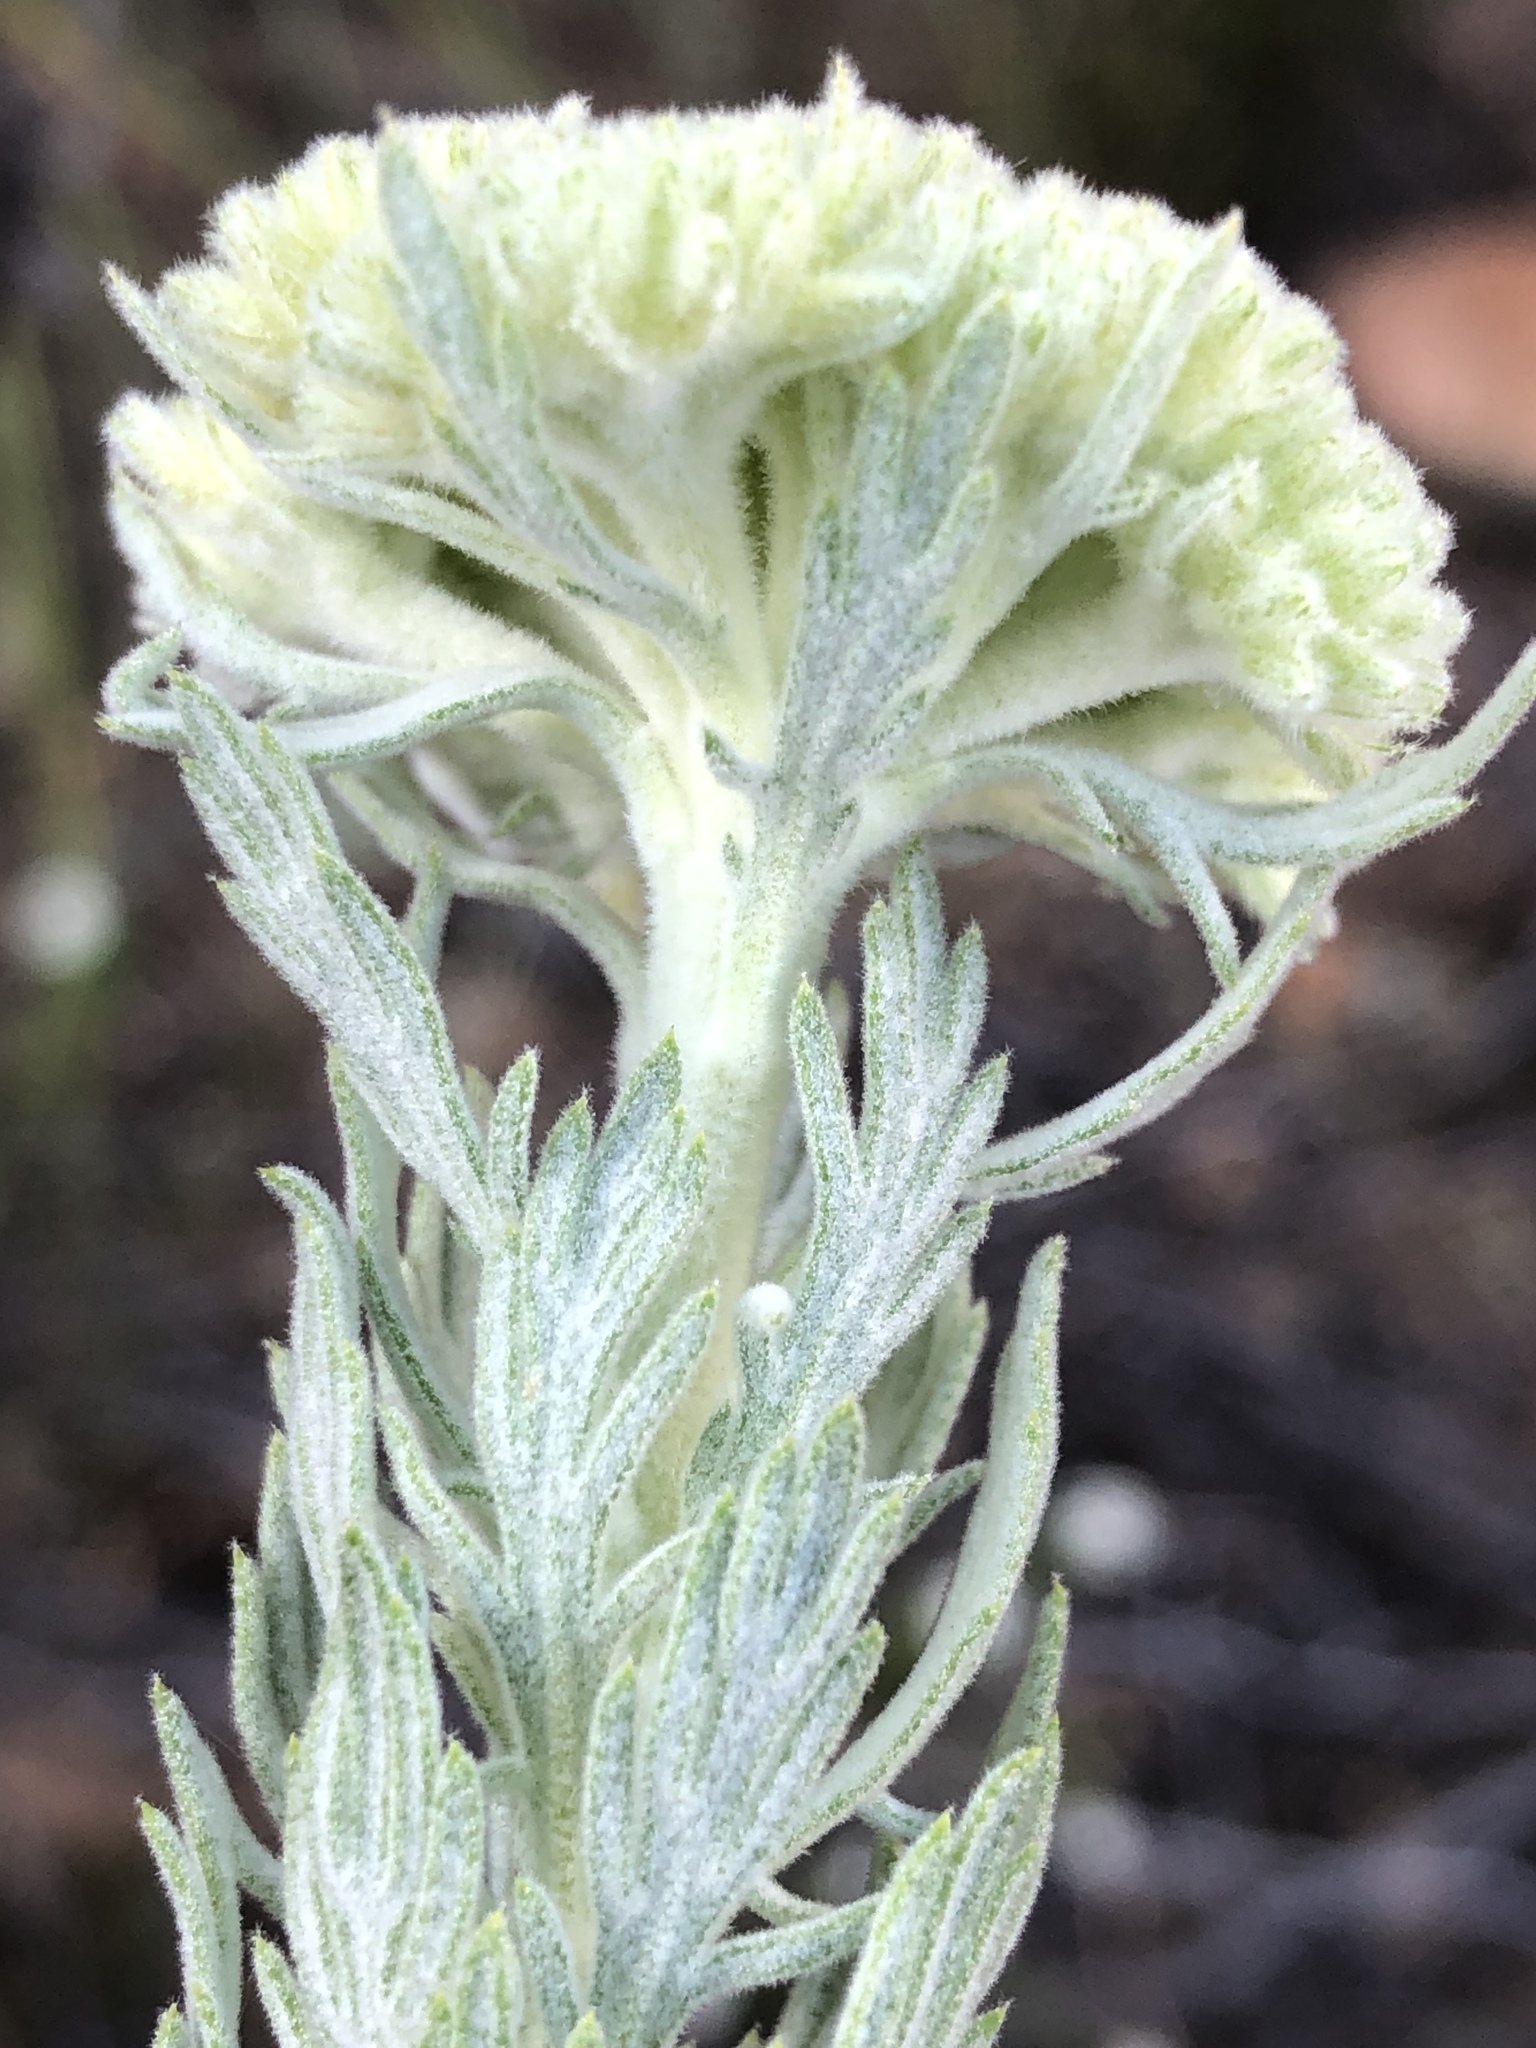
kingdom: Plantae
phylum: Tracheophyta
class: Magnoliopsida
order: Asterales
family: Asteraceae
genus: Athanasia
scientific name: Athanasia pinnata
